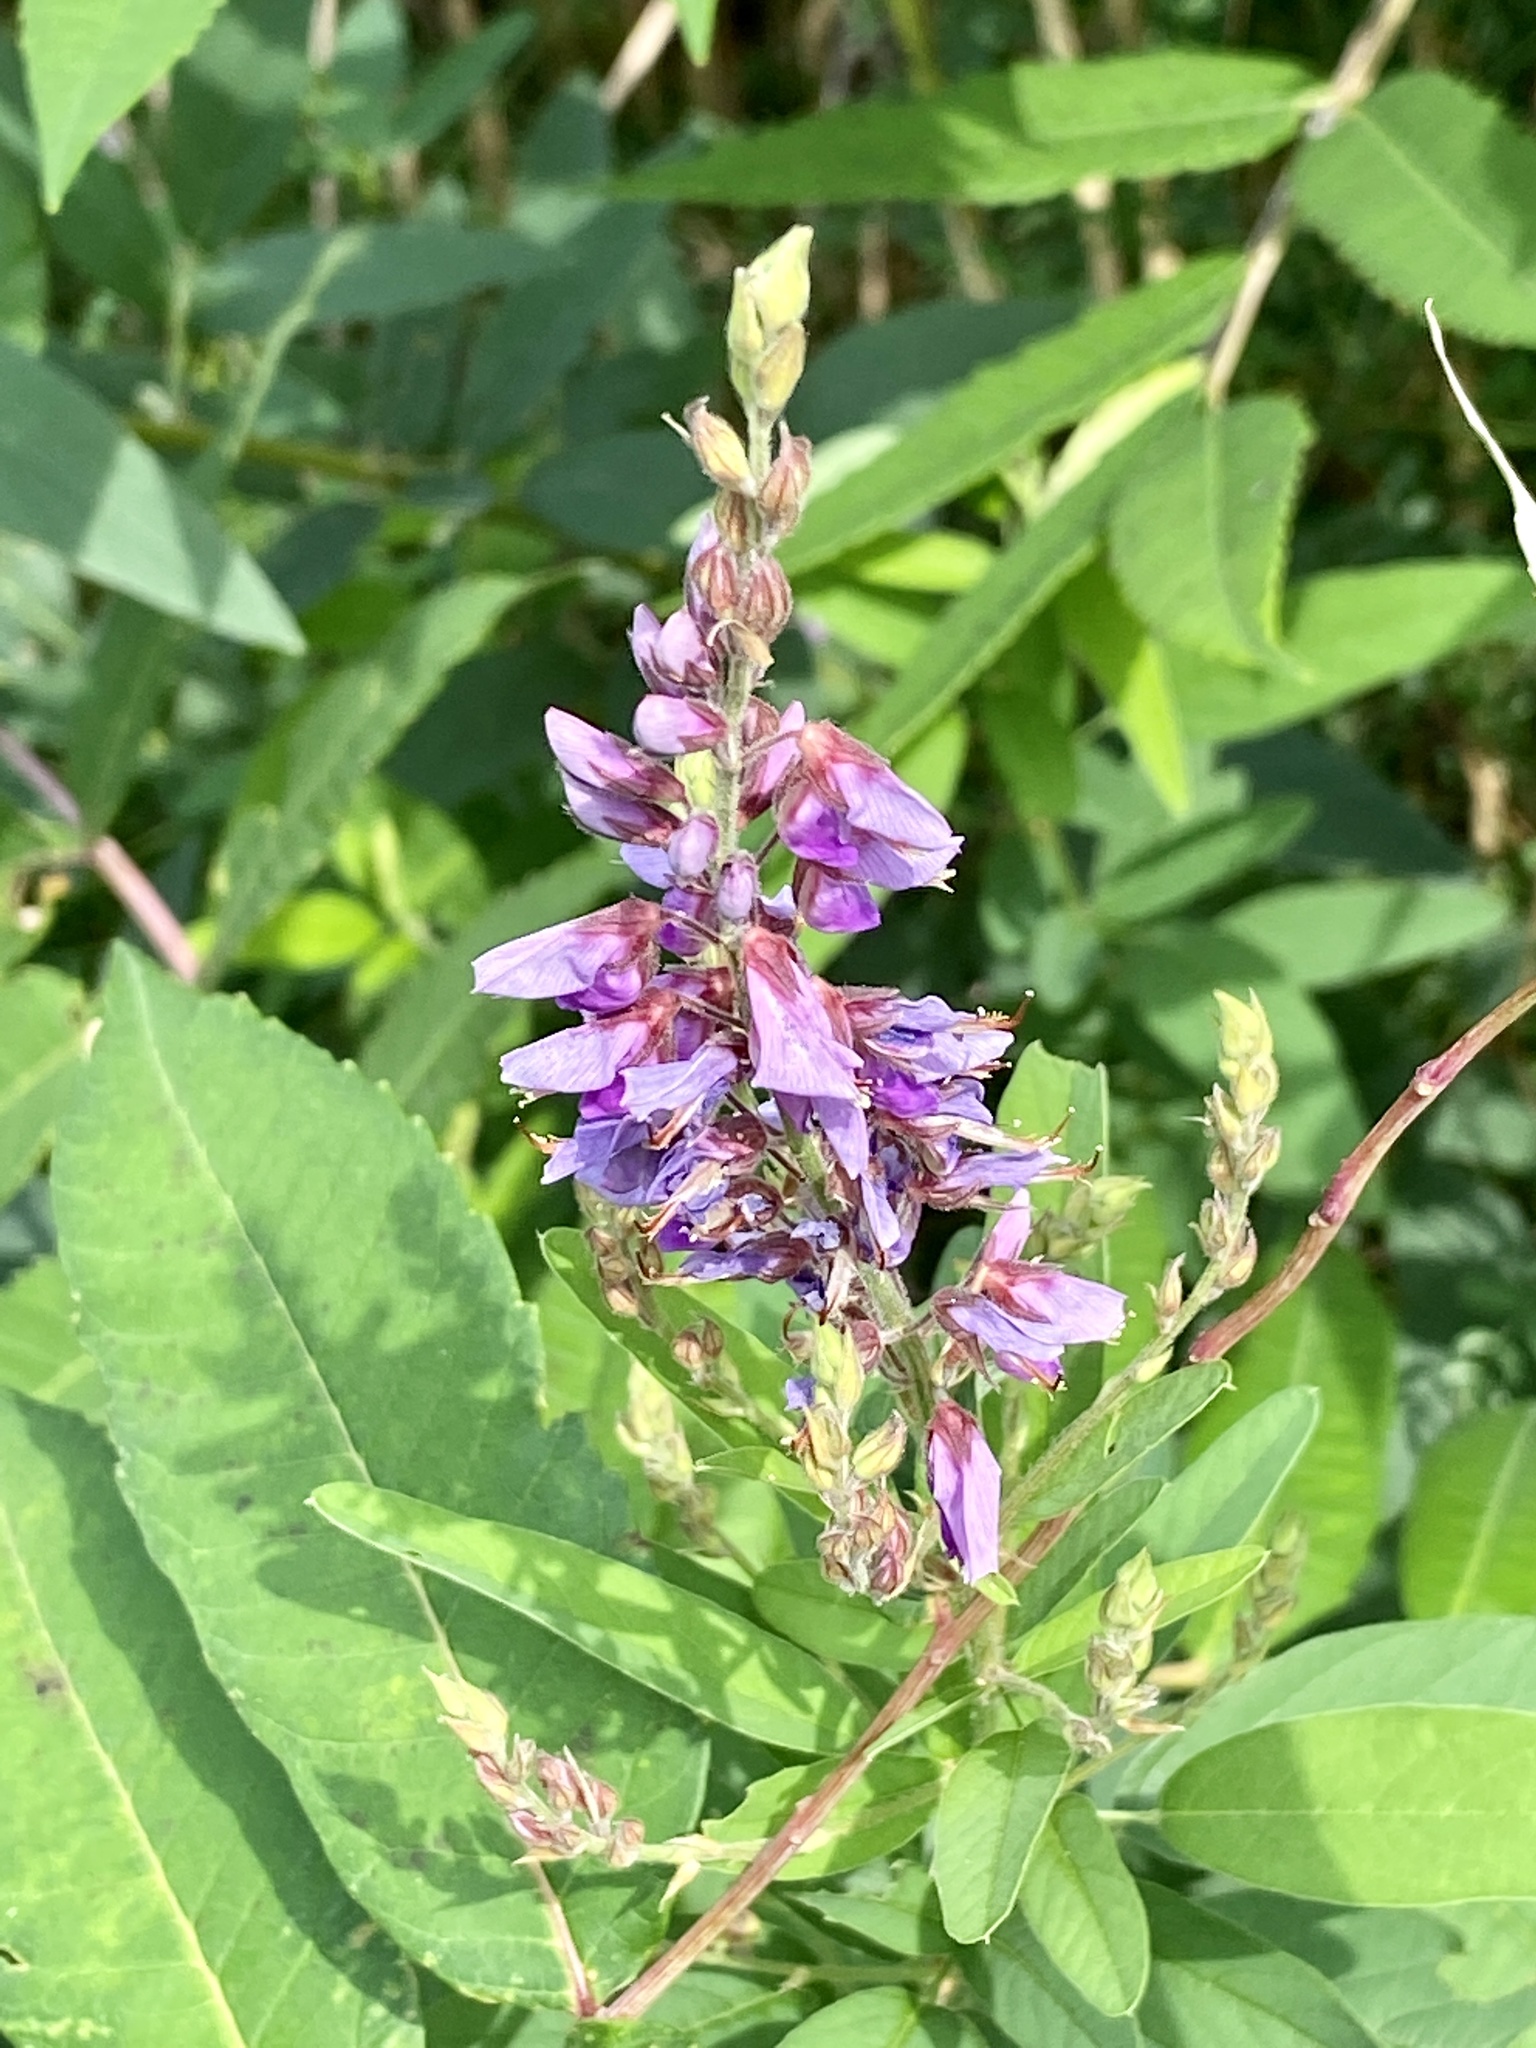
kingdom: Plantae
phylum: Tracheophyta
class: Magnoliopsida
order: Fabales
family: Fabaceae
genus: Desmodium
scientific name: Desmodium canadense
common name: Canada tick-trefoil
